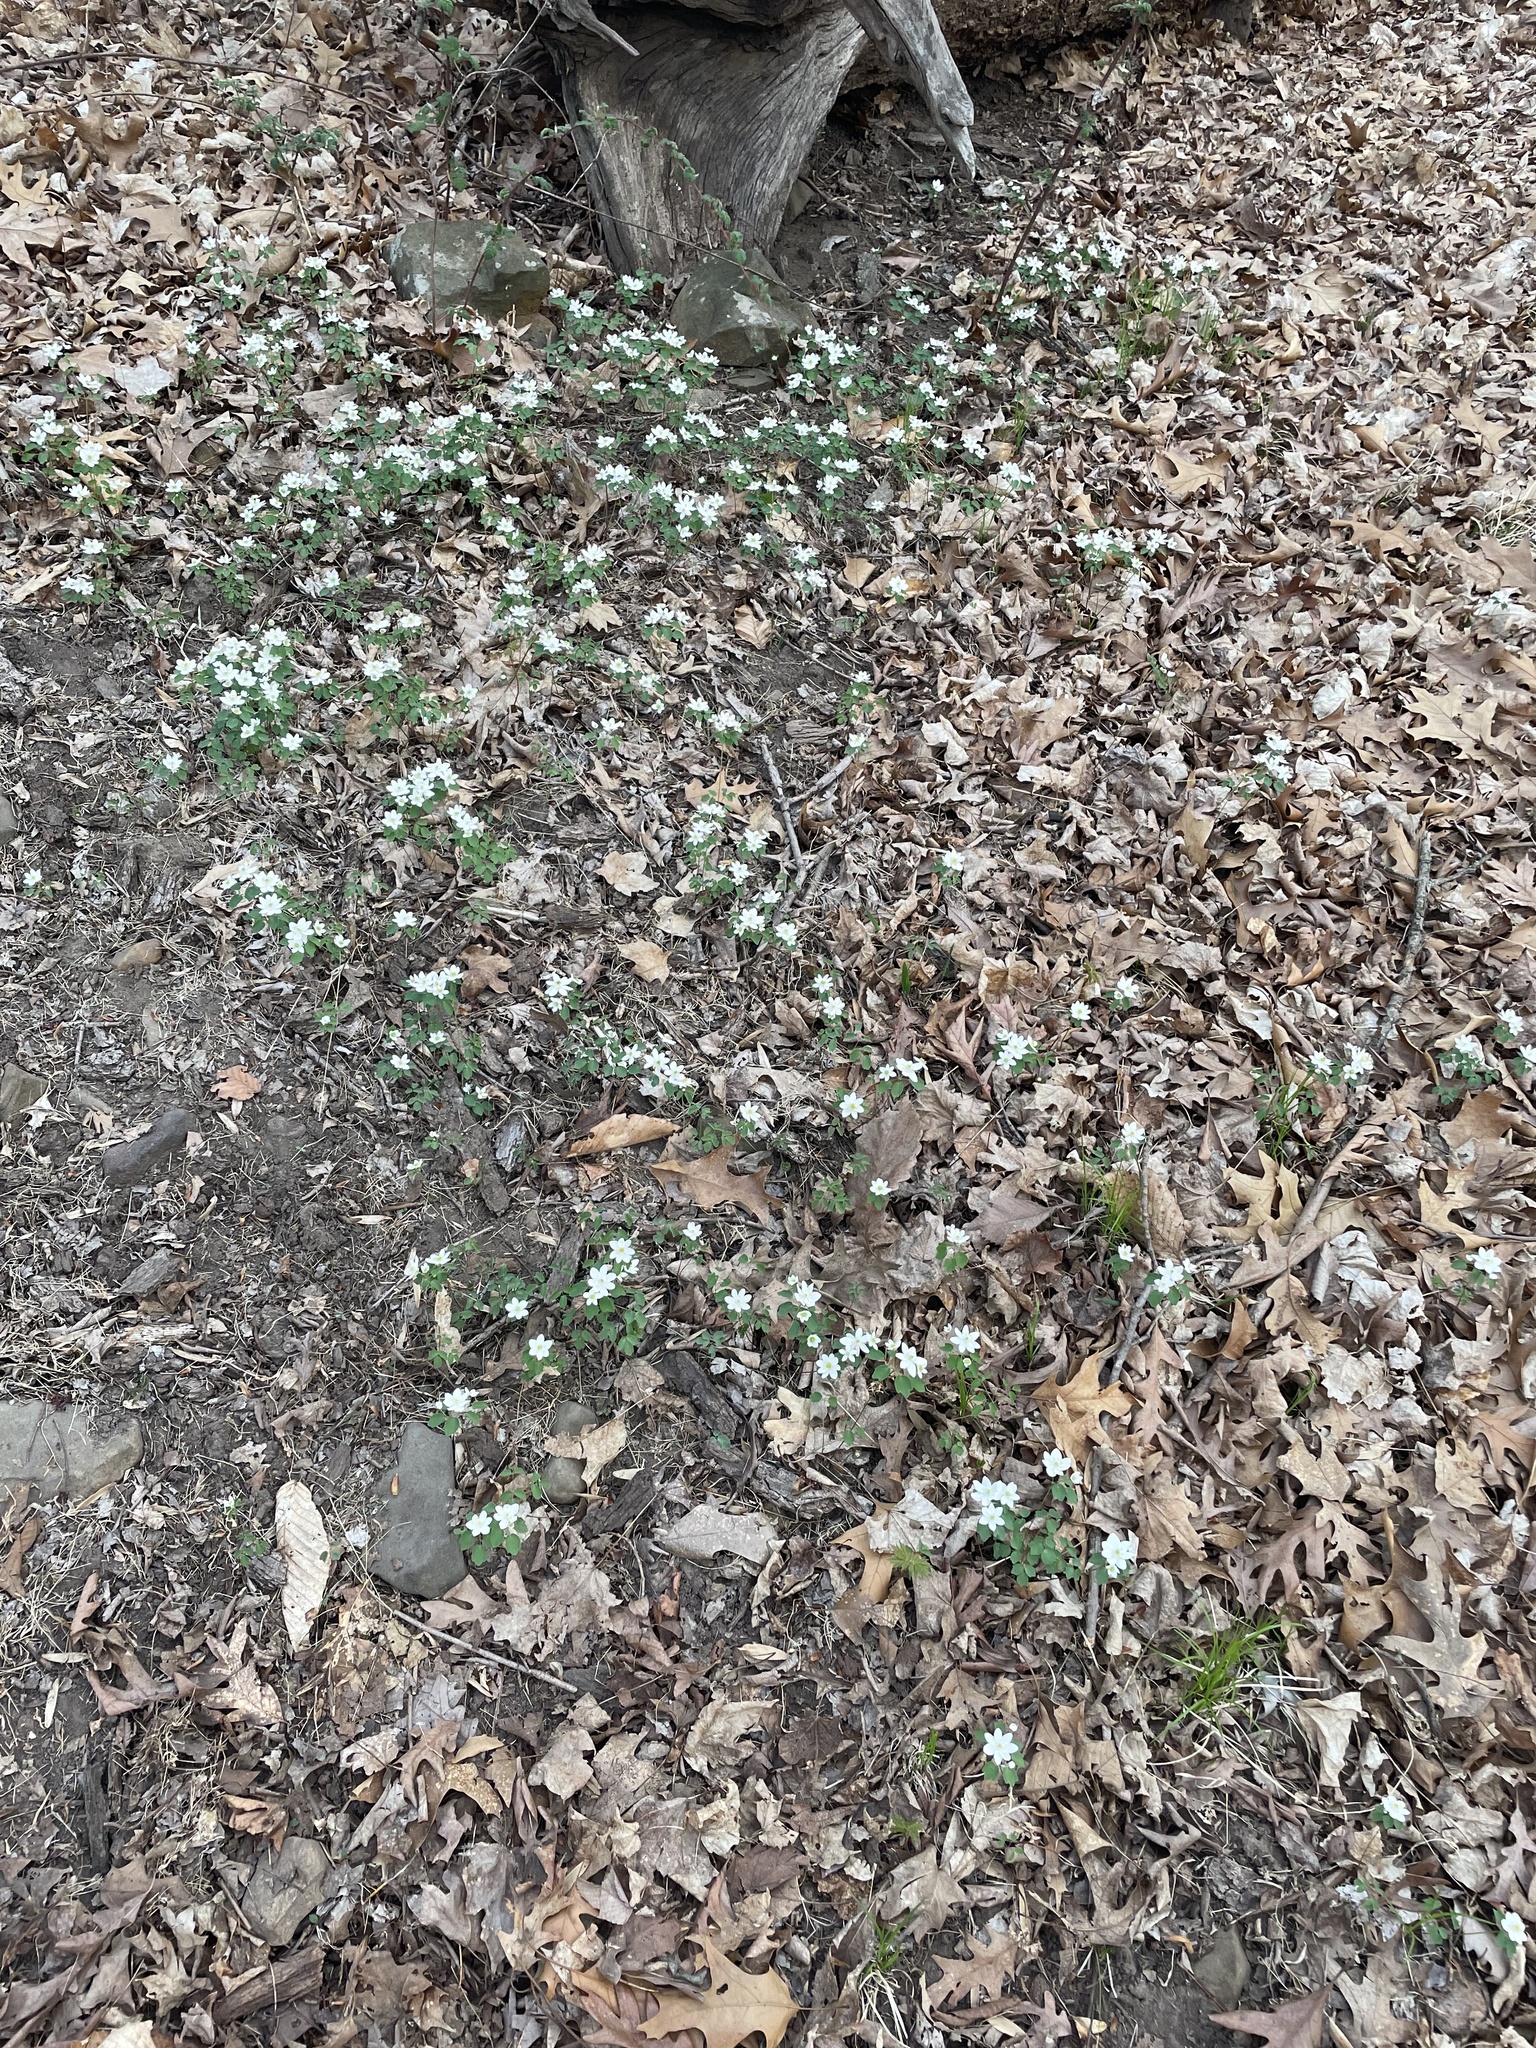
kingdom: Plantae
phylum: Tracheophyta
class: Magnoliopsida
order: Ranunculales
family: Ranunculaceae
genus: Thalictrum
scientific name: Thalictrum thalictroides
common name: Rue-anemone
